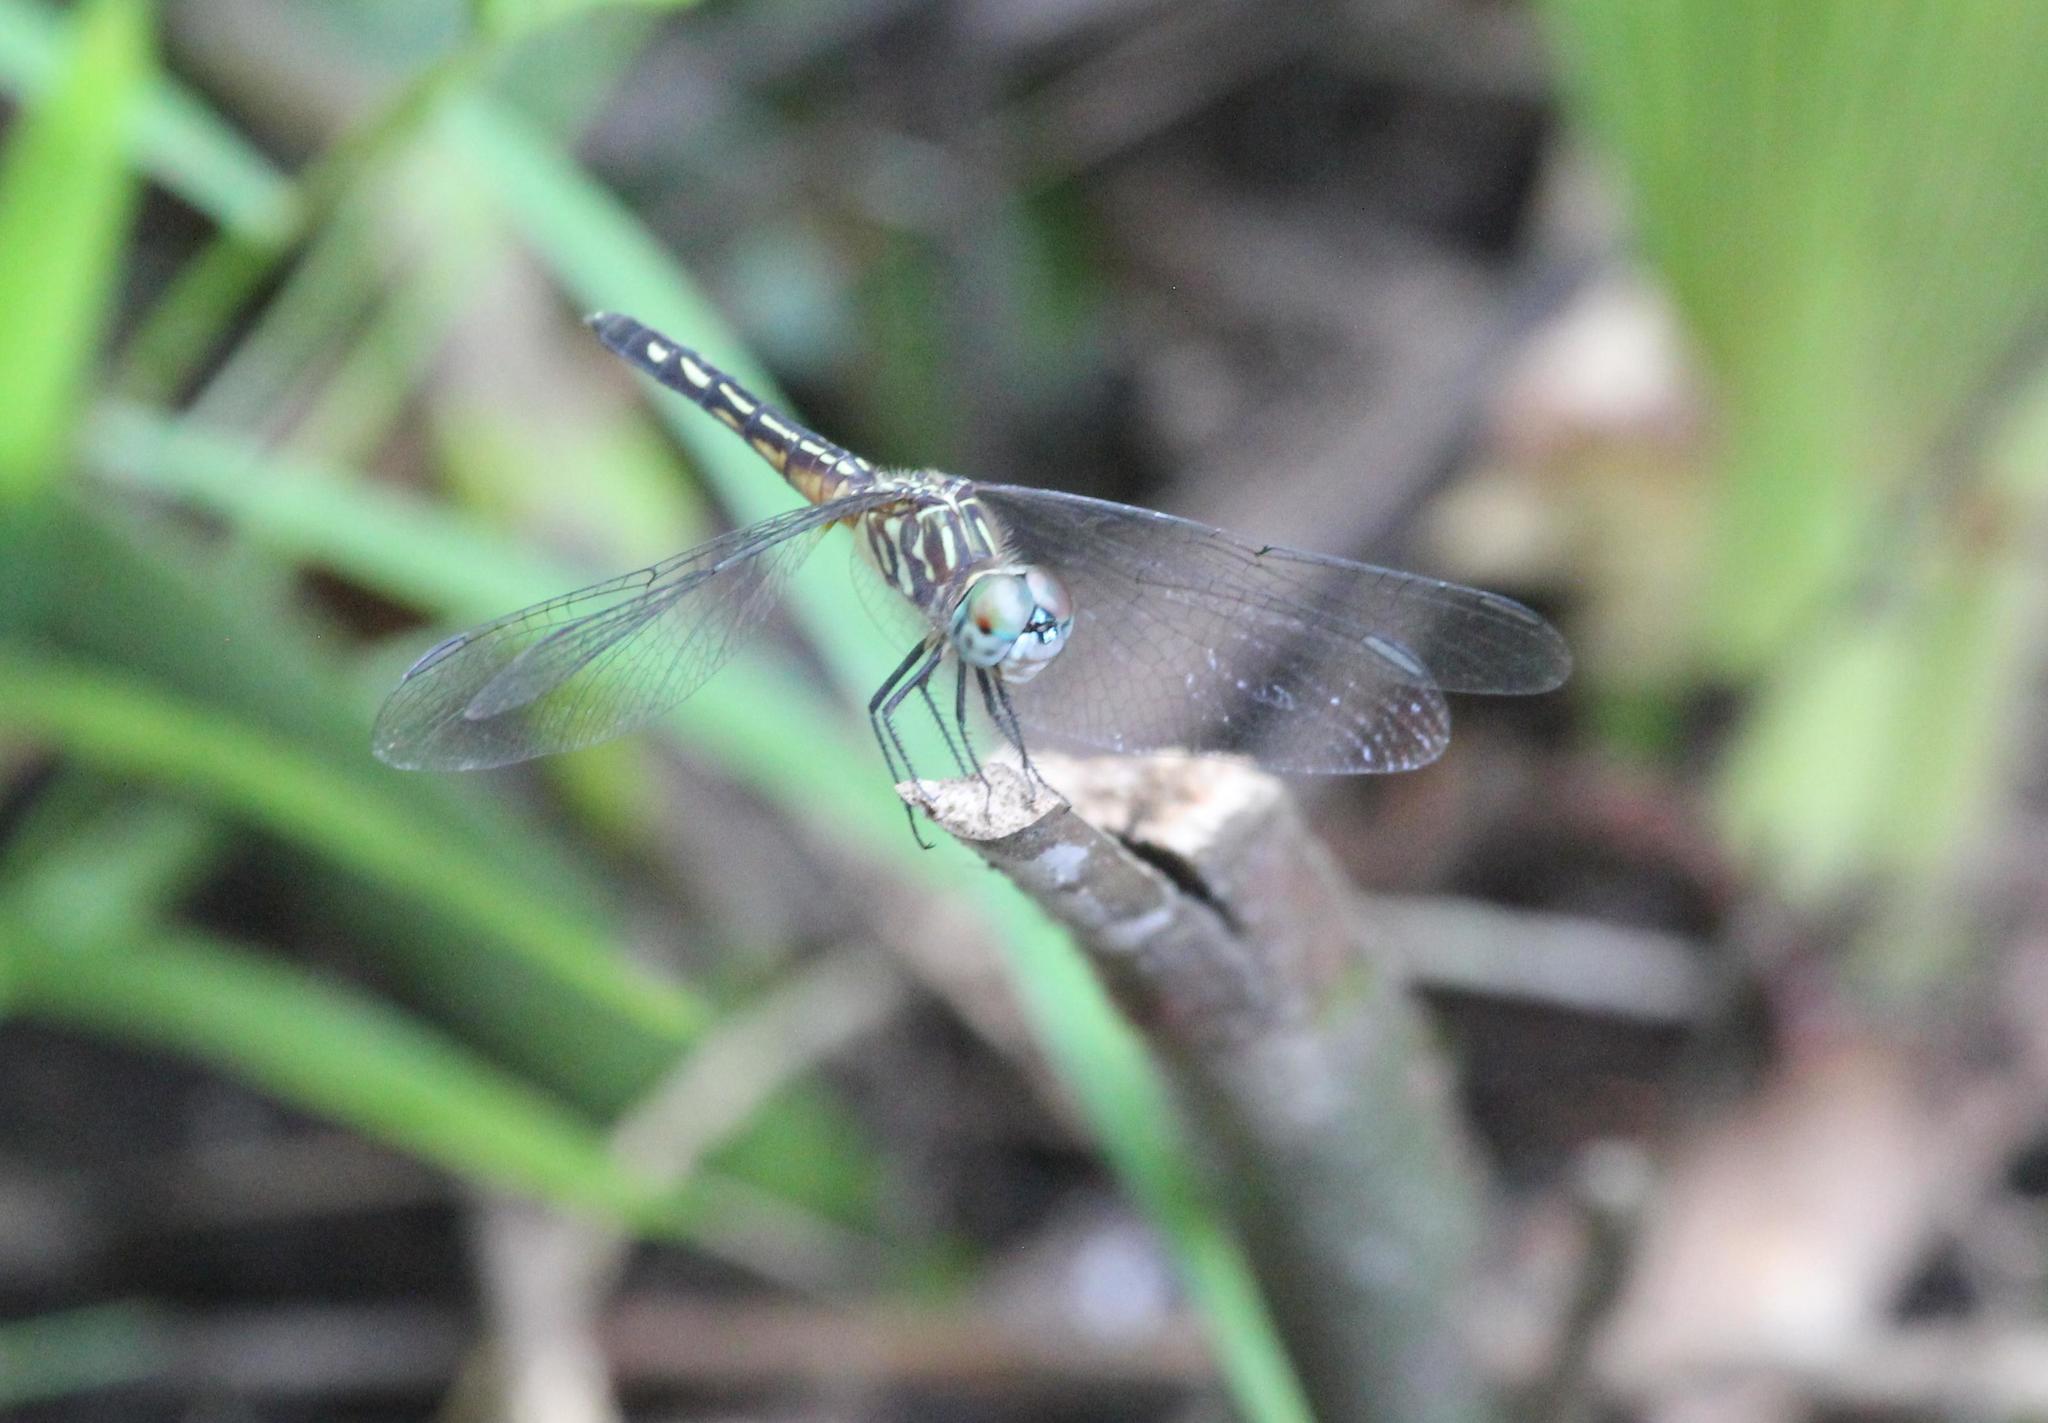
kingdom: Animalia
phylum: Arthropoda
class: Insecta
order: Odonata
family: Libellulidae
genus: Pachydiplax
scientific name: Pachydiplax longipennis
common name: Blue dasher
